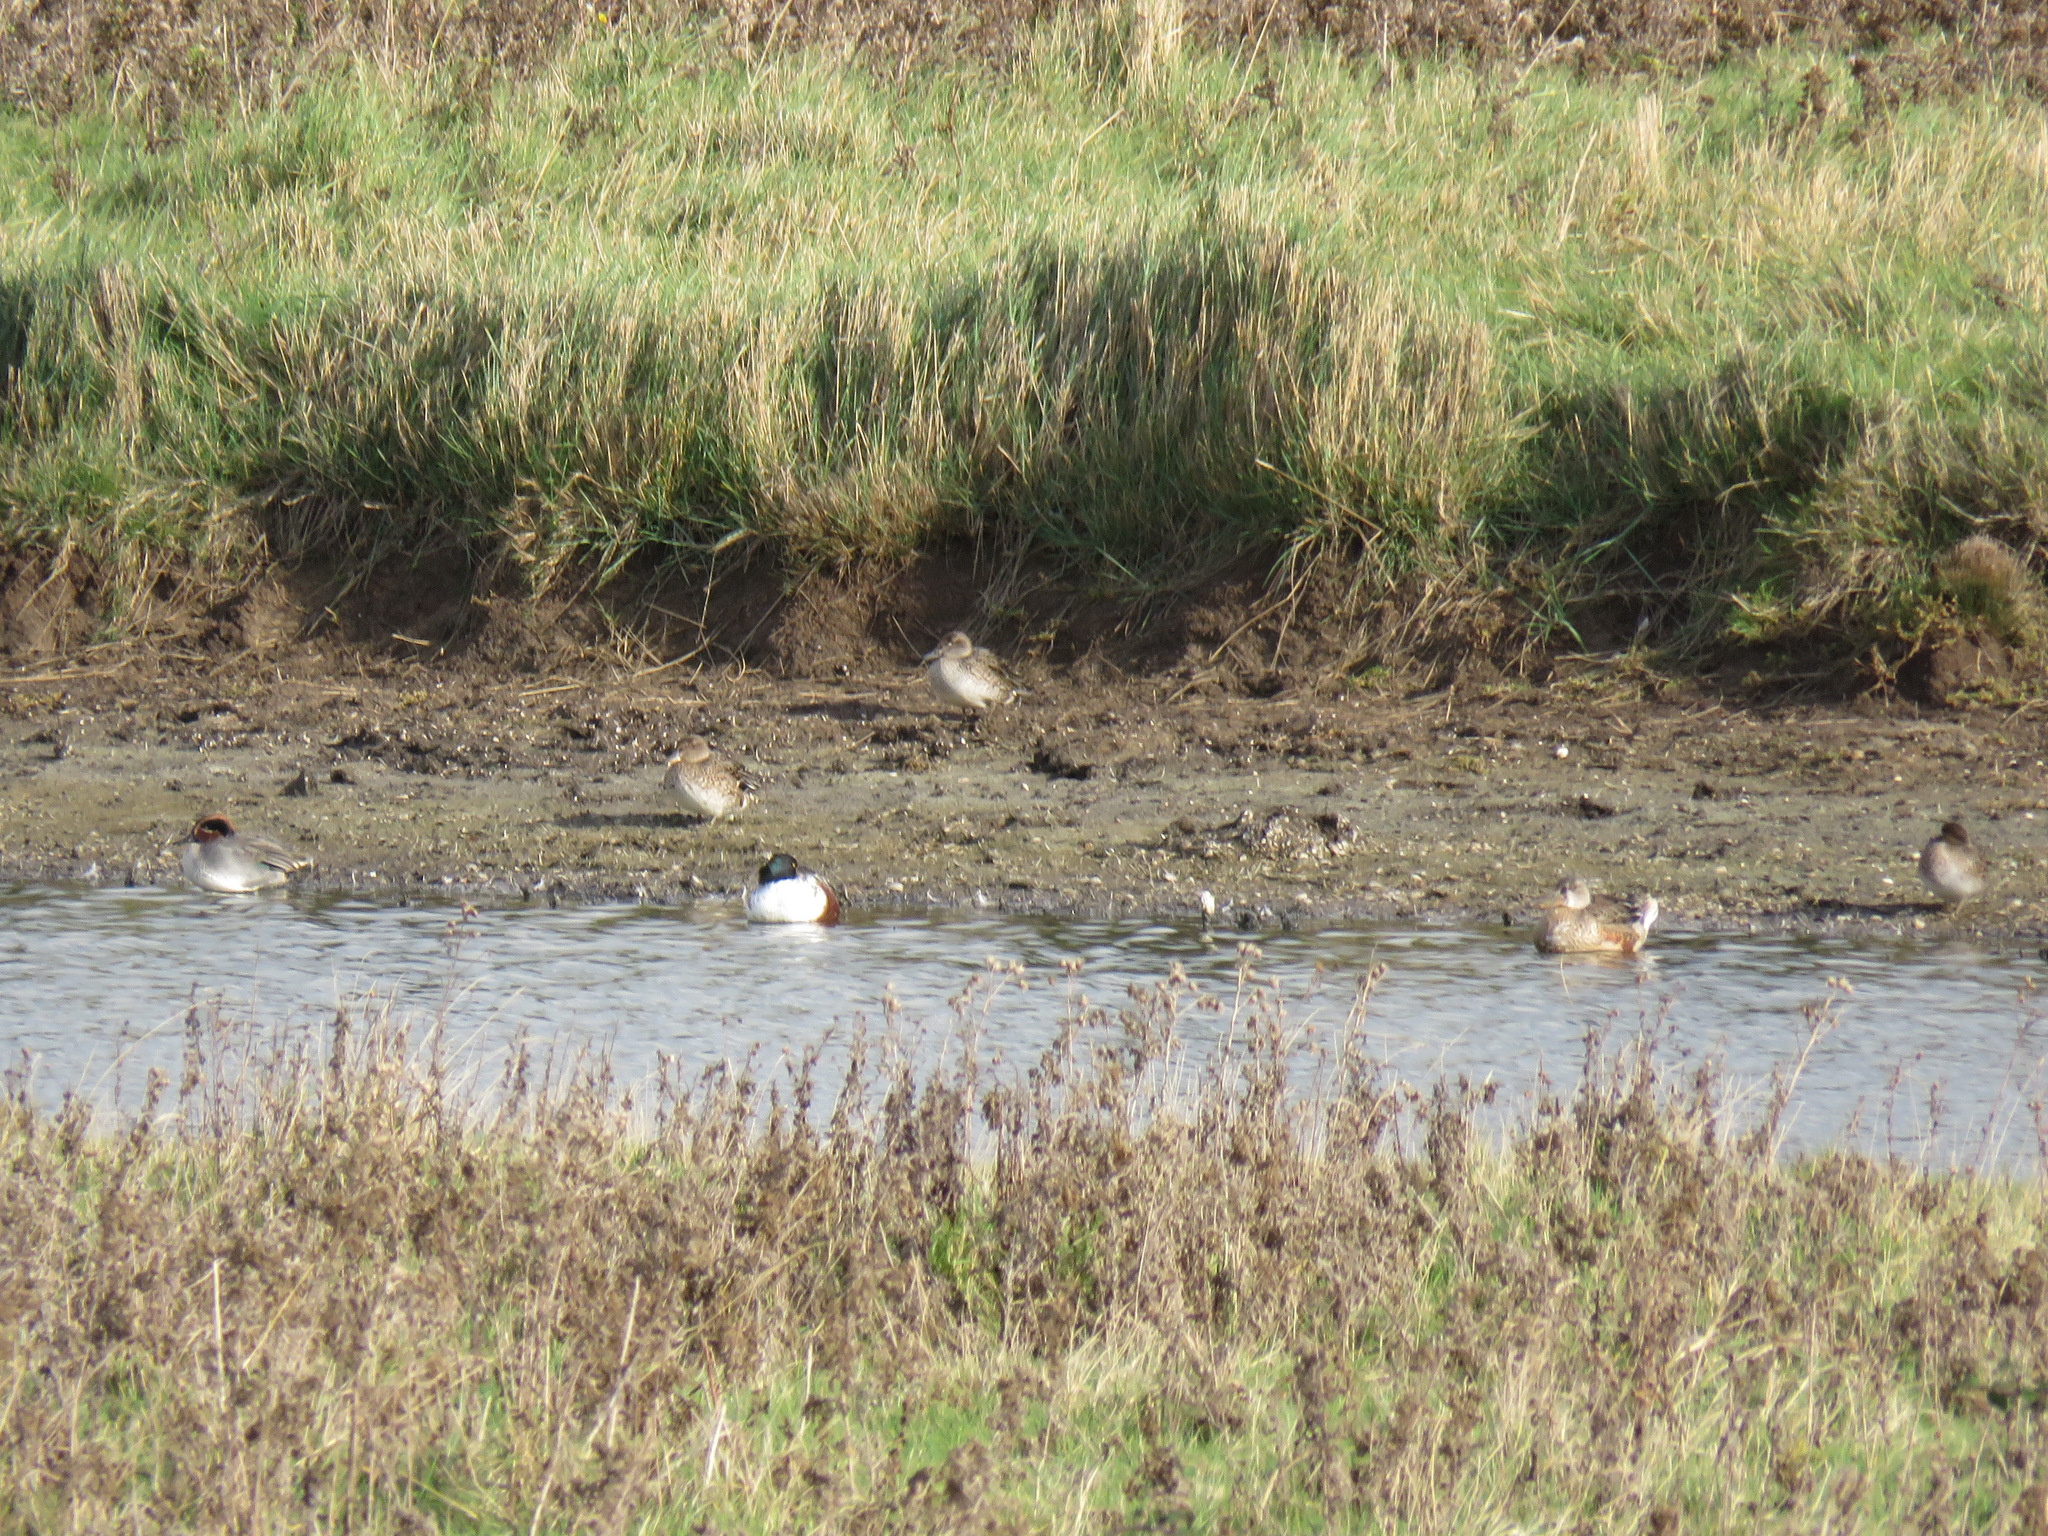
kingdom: Animalia
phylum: Chordata
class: Aves
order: Anseriformes
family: Anatidae
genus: Spatula
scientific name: Spatula clypeata
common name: Northern shoveler
